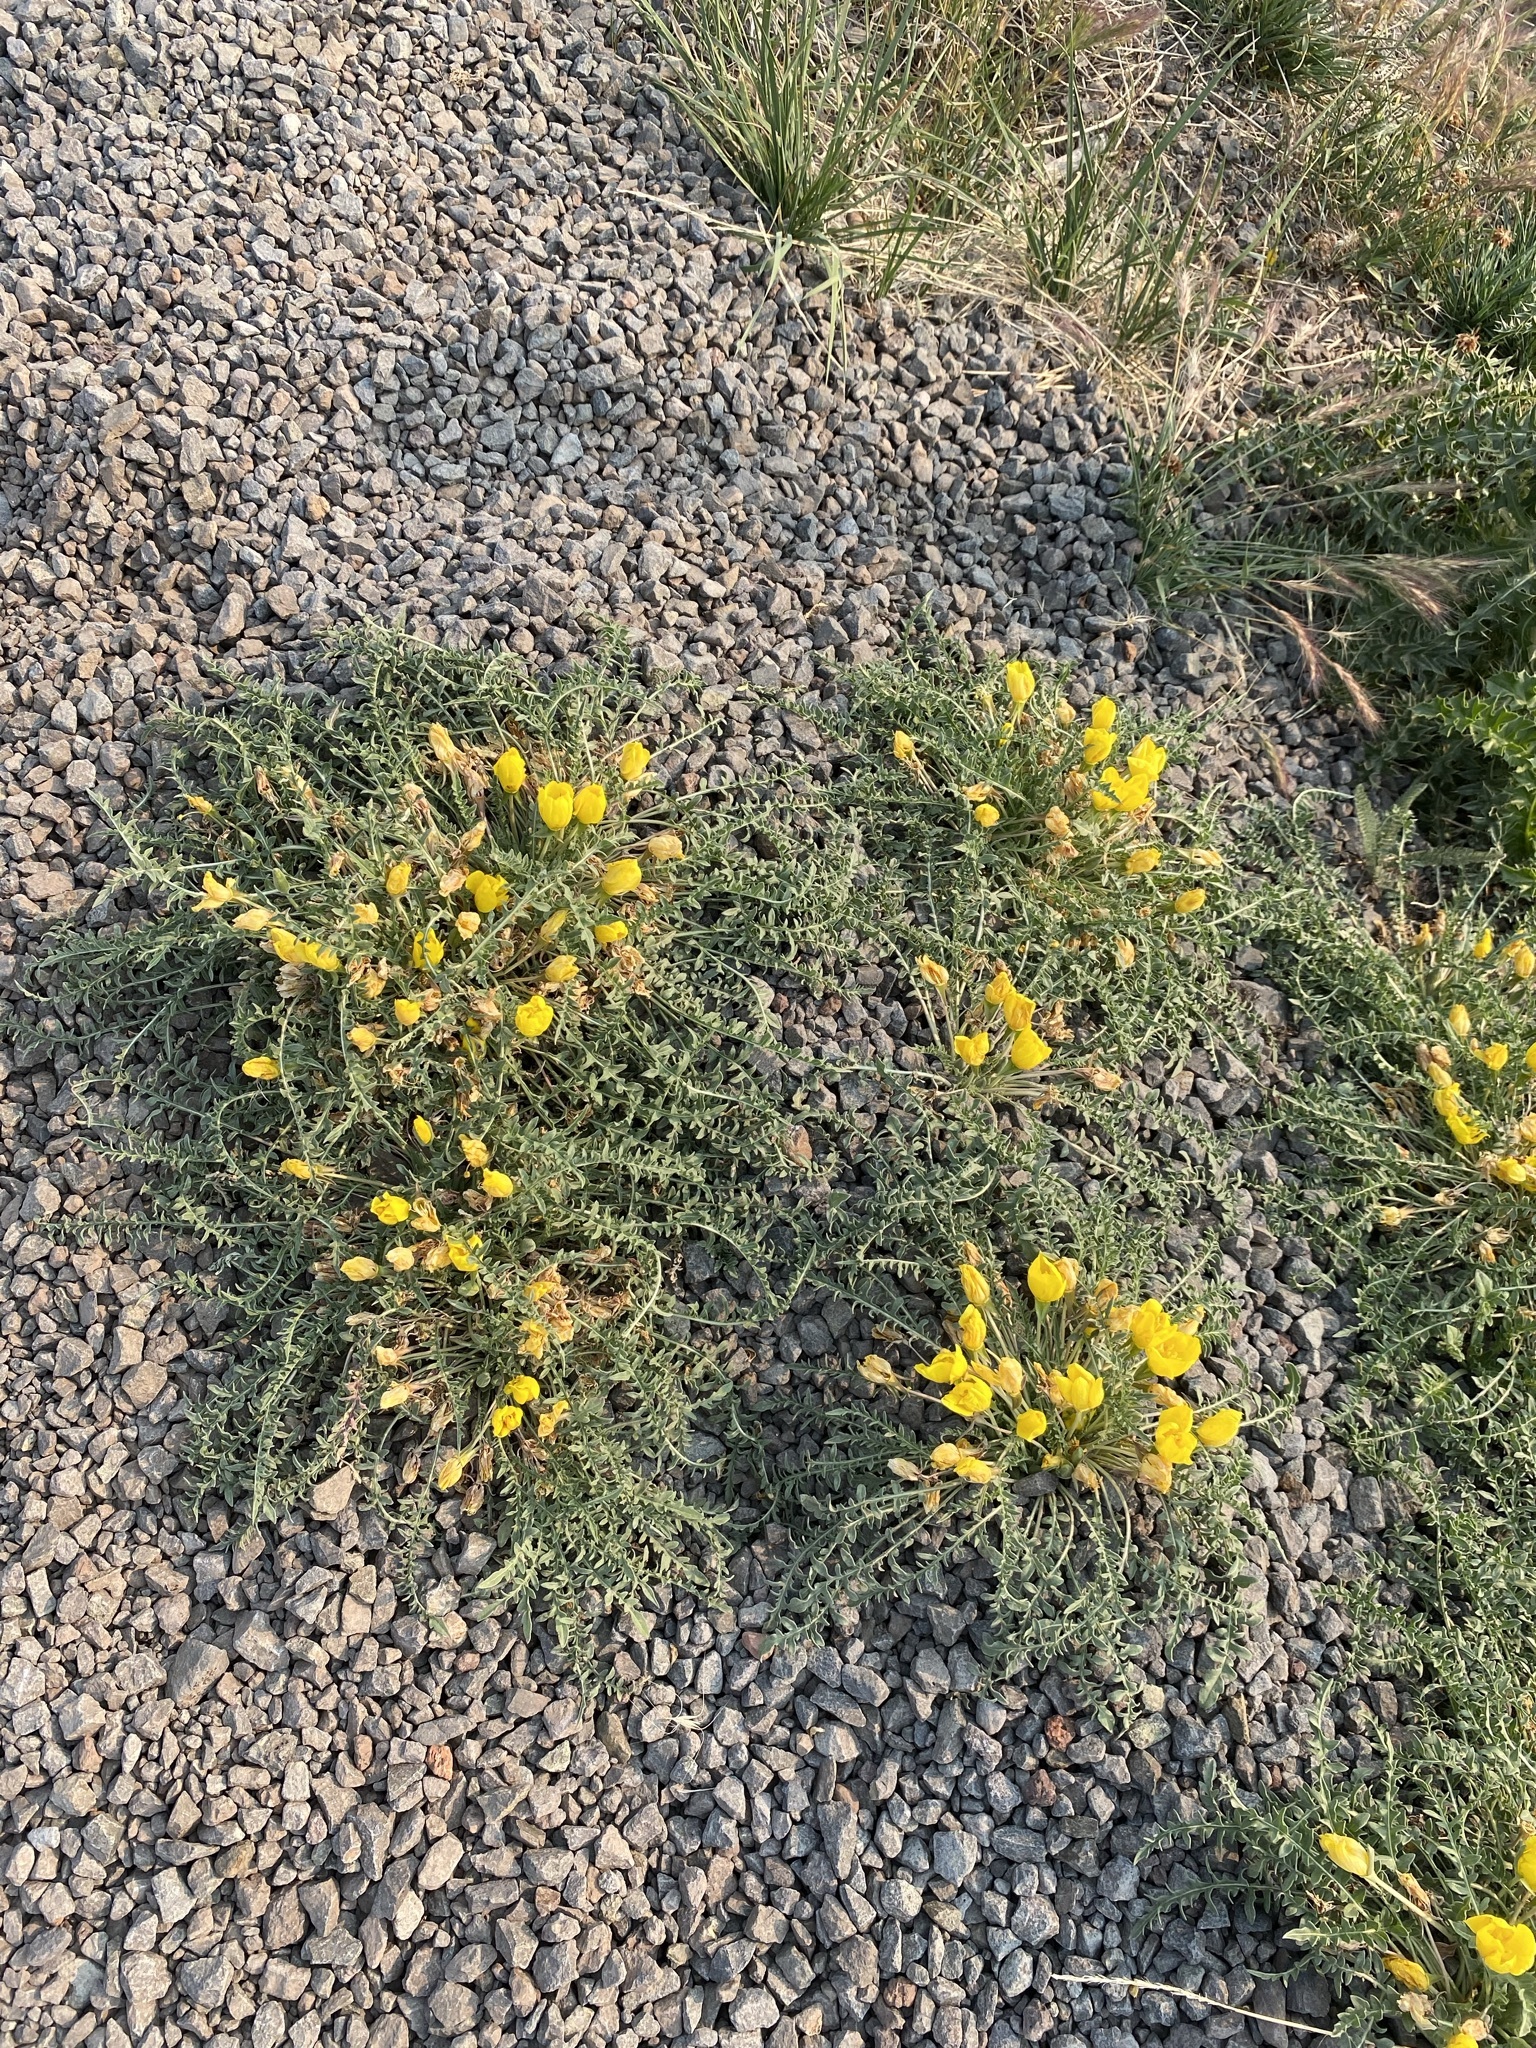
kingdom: Plantae
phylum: Tracheophyta
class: Magnoliopsida
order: Myrtales
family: Onagraceae
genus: Taraxia
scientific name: Taraxia tanacetifolia
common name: Tansyleaf evening primrose
